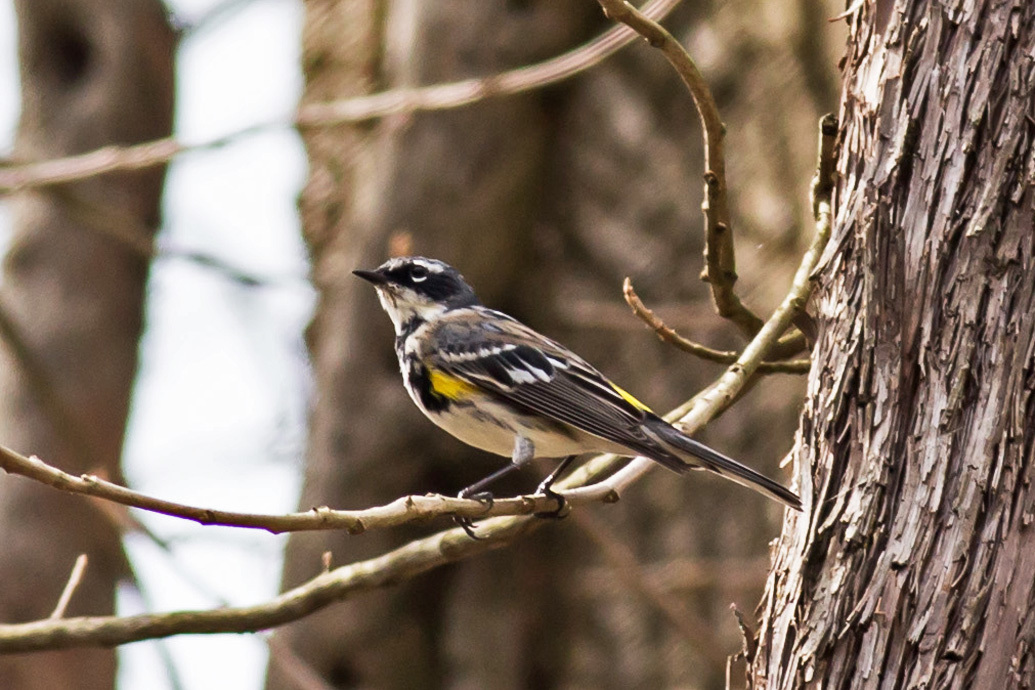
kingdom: Animalia
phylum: Chordata
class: Aves
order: Passeriformes
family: Parulidae
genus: Setophaga
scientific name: Setophaga coronata
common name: Myrtle warbler
